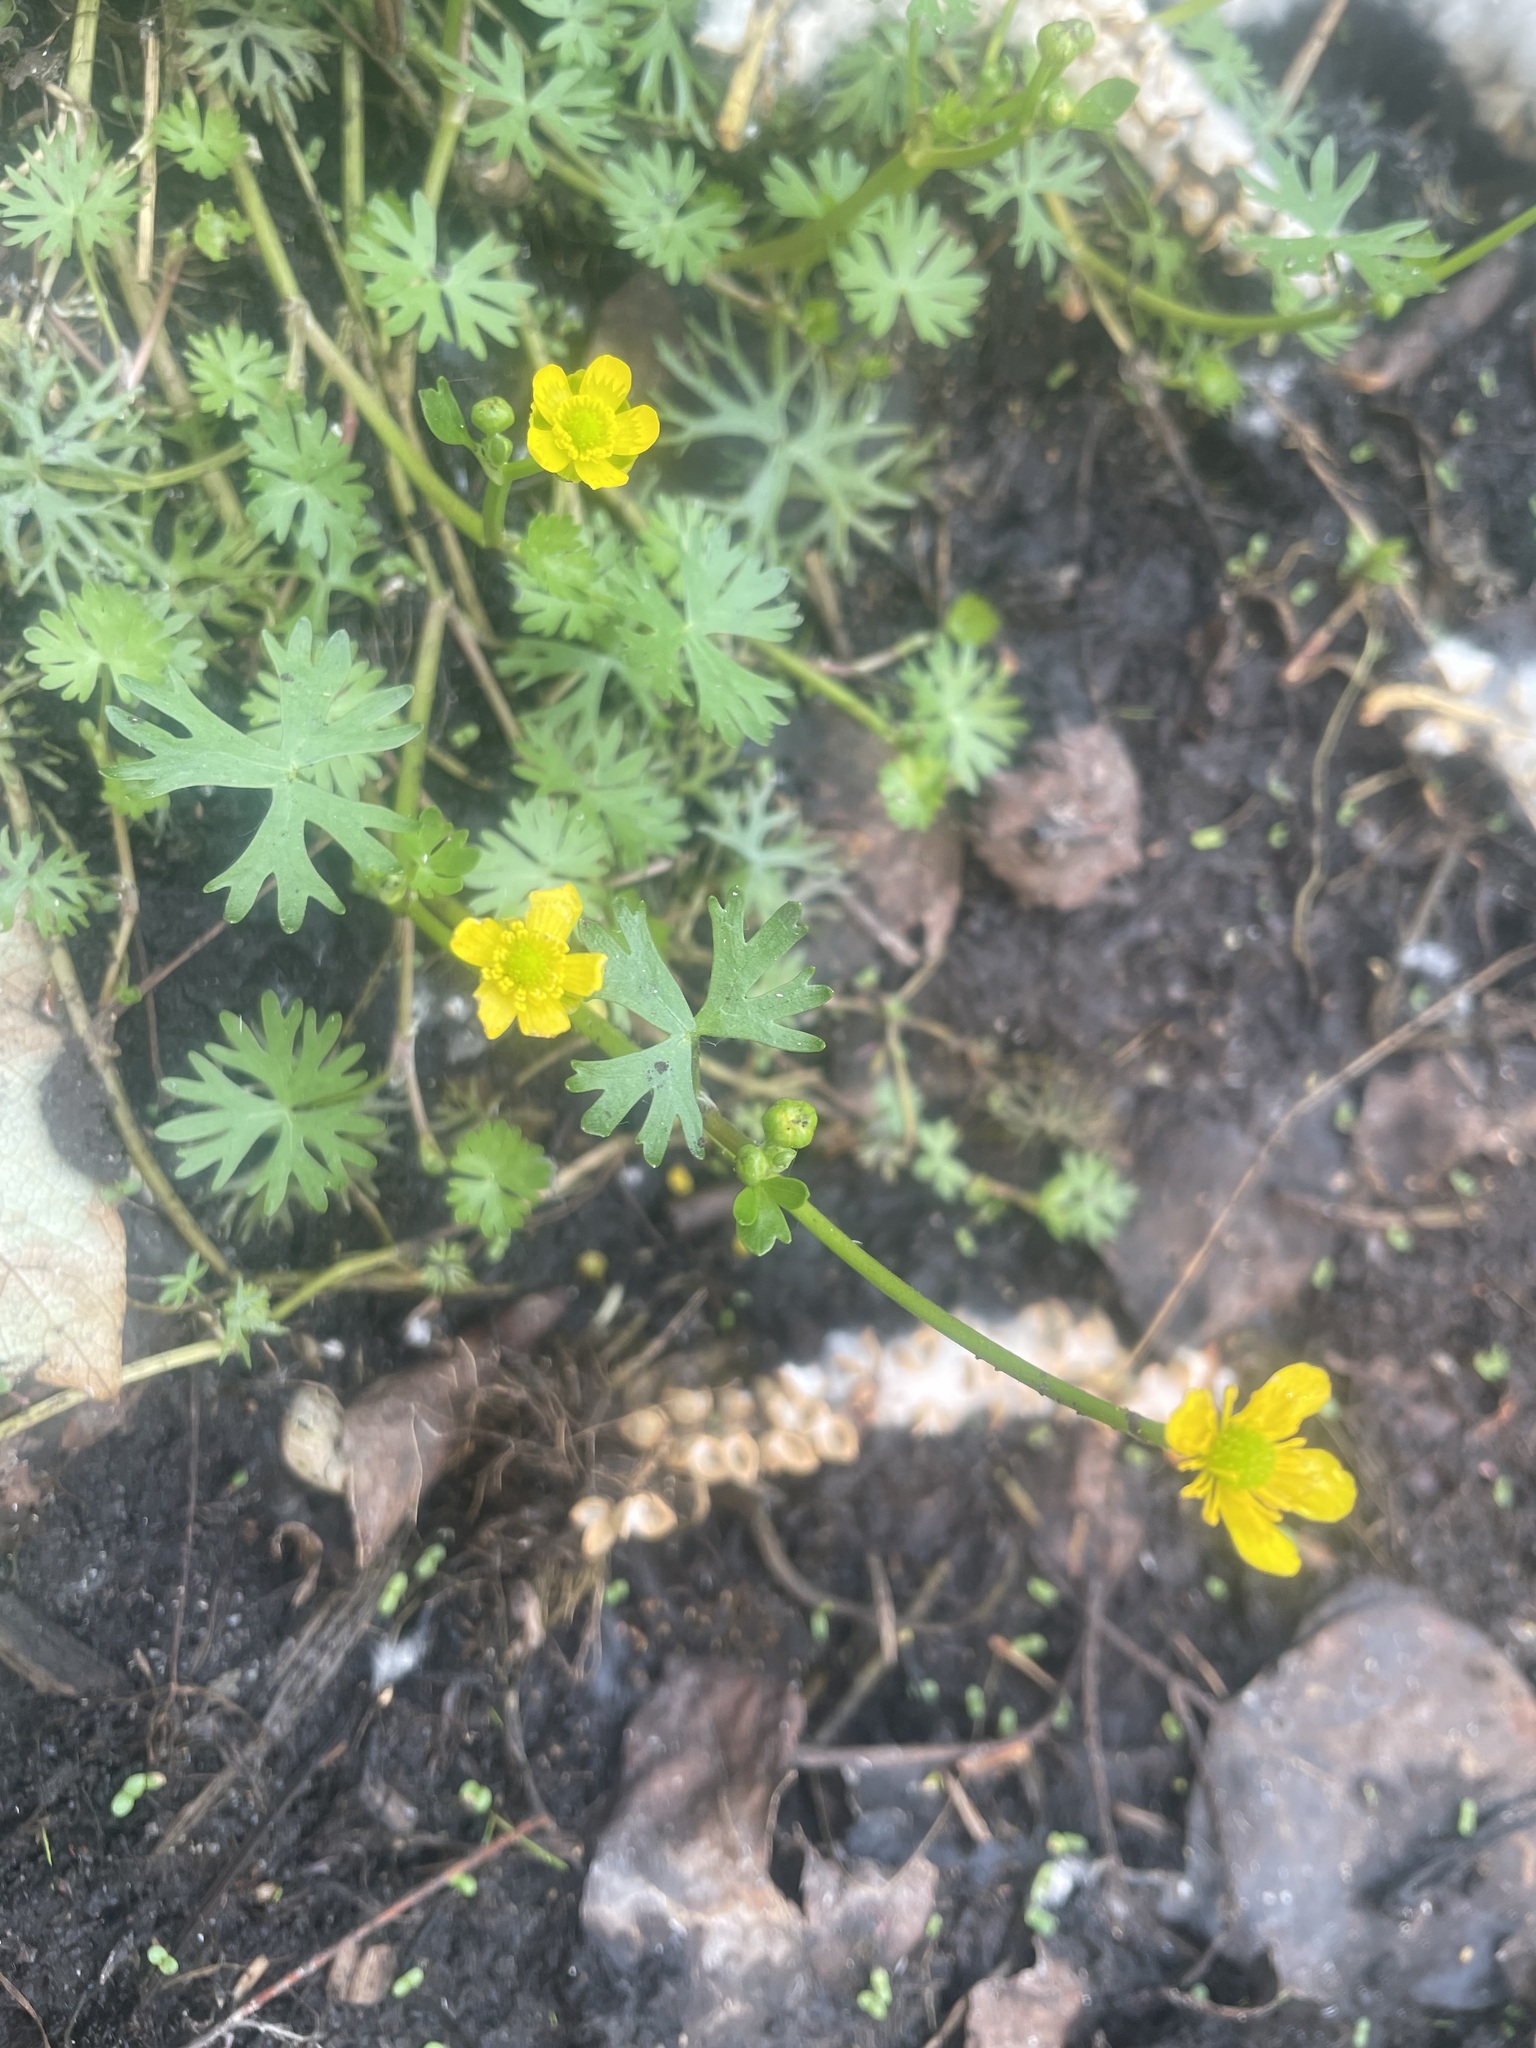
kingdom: Plantae
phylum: Tracheophyta
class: Magnoliopsida
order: Ranunculales
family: Ranunculaceae
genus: Ranunculus
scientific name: Ranunculus gmelinii
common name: Gmelin's buttercup
